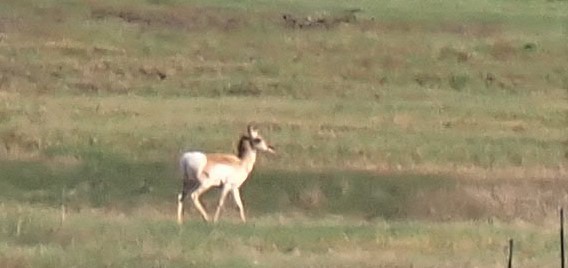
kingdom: Animalia
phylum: Chordata
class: Mammalia
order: Artiodactyla
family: Antilocapridae
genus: Antilocapra
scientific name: Antilocapra americana
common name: Pronghorn
